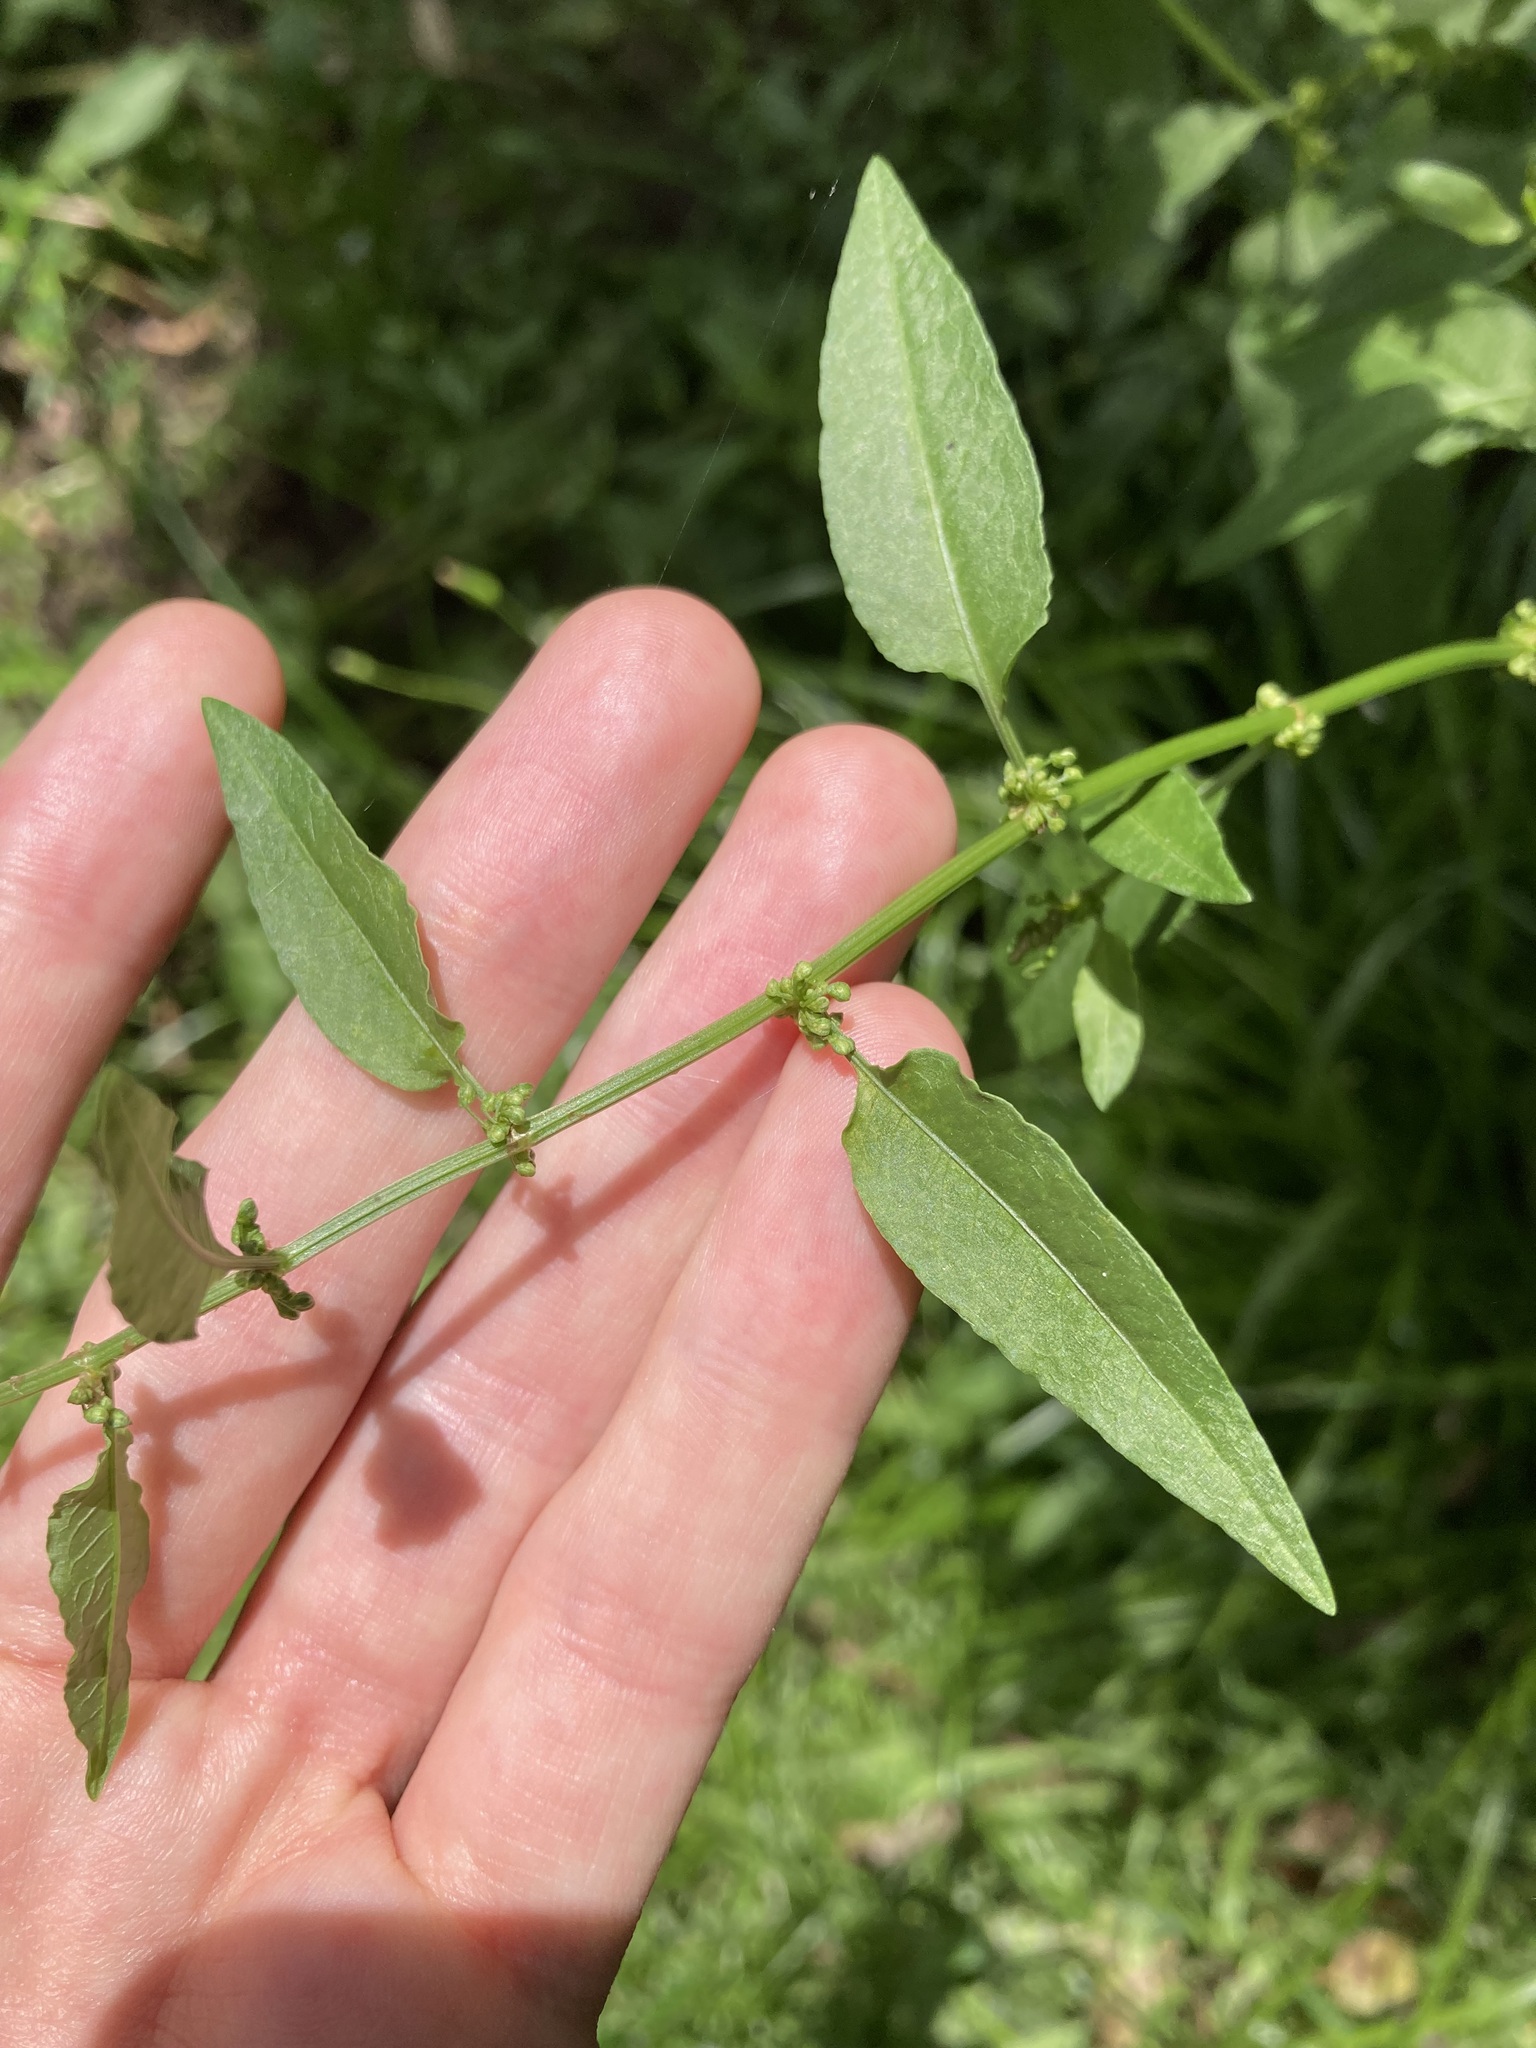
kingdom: Plantae
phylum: Tracheophyta
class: Magnoliopsida
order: Caryophyllales
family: Polygonaceae
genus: Rumex
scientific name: Rumex conglomeratus
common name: Clustered dock
